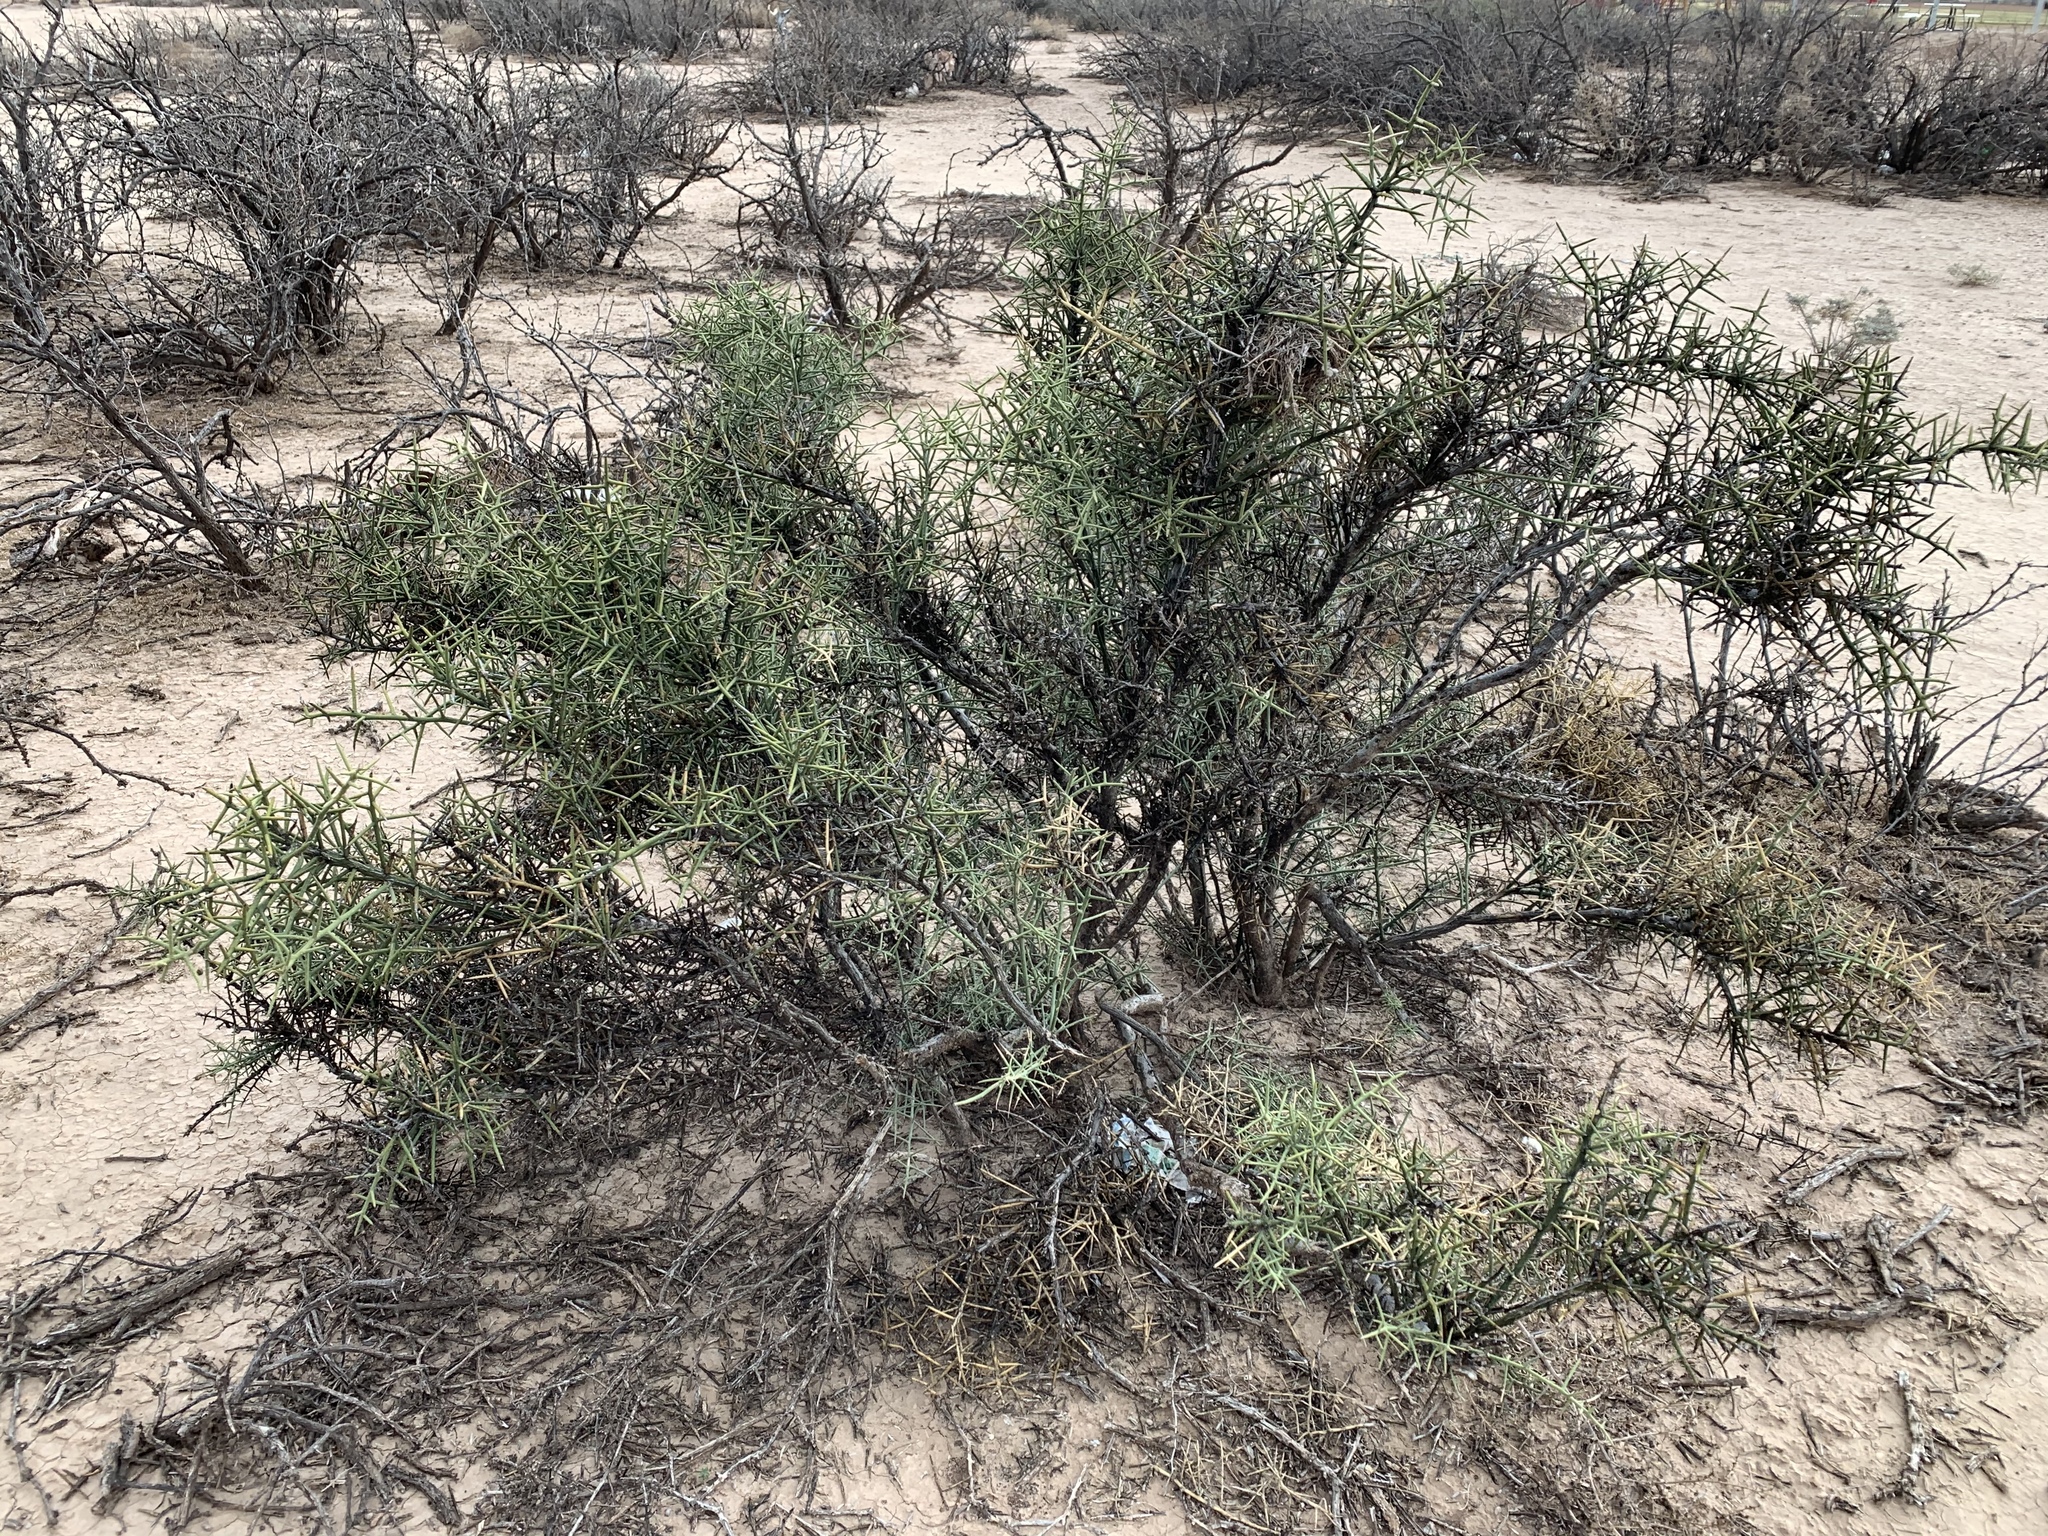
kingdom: Plantae
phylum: Tracheophyta
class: Magnoliopsida
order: Brassicales
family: Koeberliniaceae
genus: Koeberlinia
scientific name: Koeberlinia spinosa
